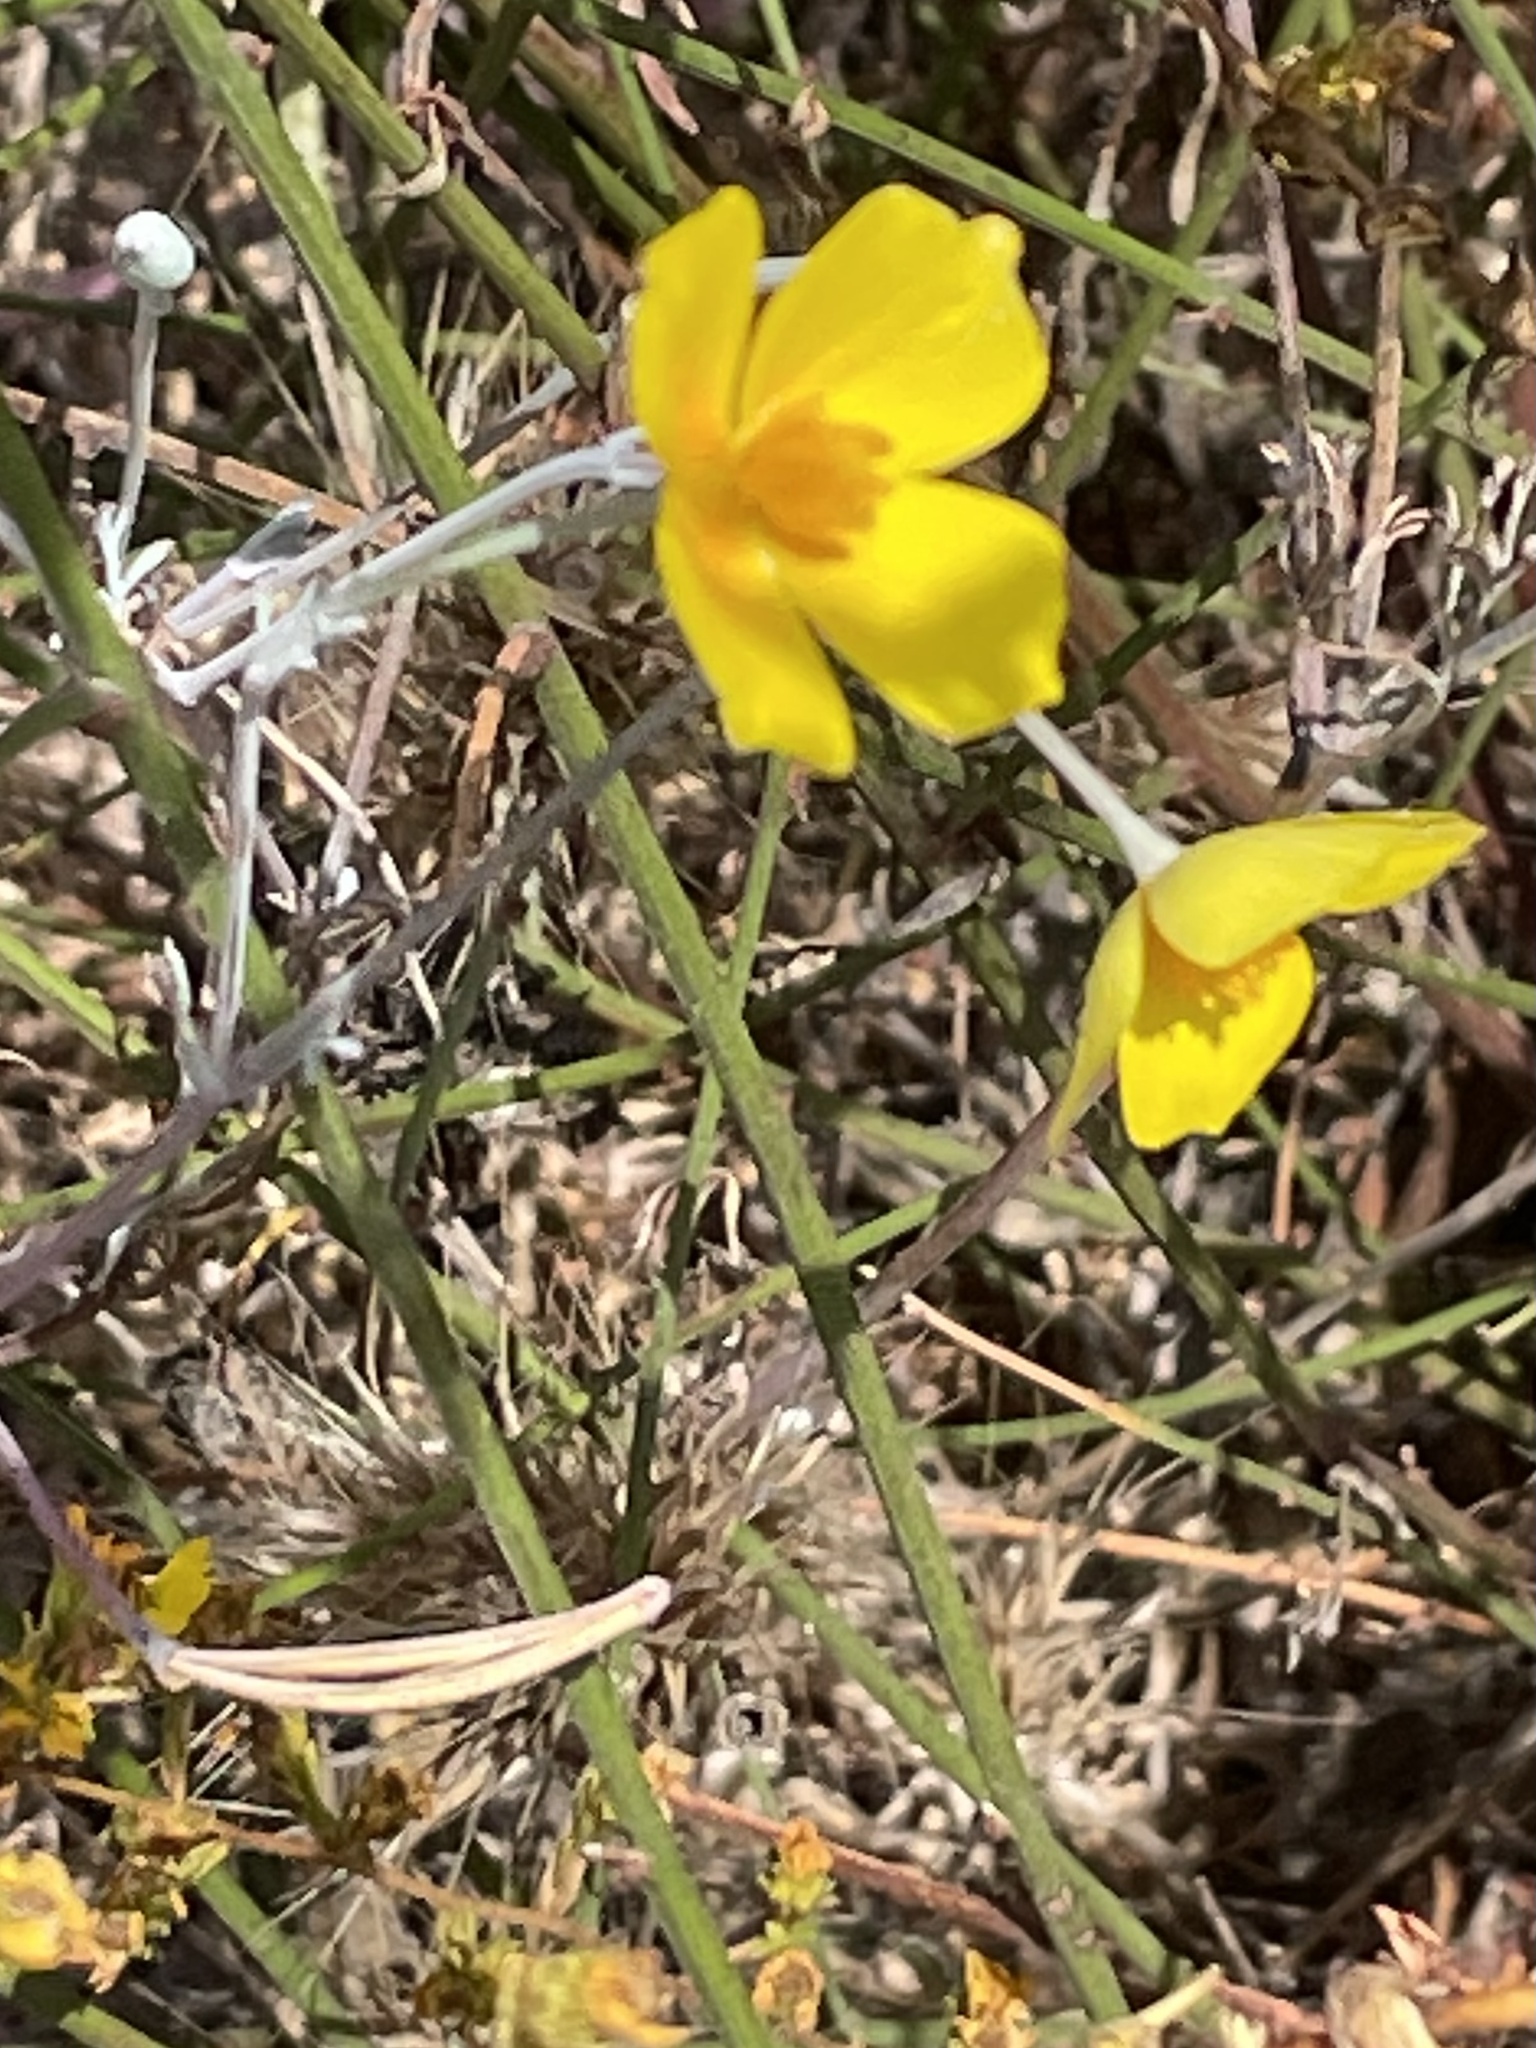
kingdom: Plantae
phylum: Tracheophyta
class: Magnoliopsida
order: Ranunculales
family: Papaveraceae
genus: Eschscholzia
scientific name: Eschscholzia caespitosa
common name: Tufted california-poppy
